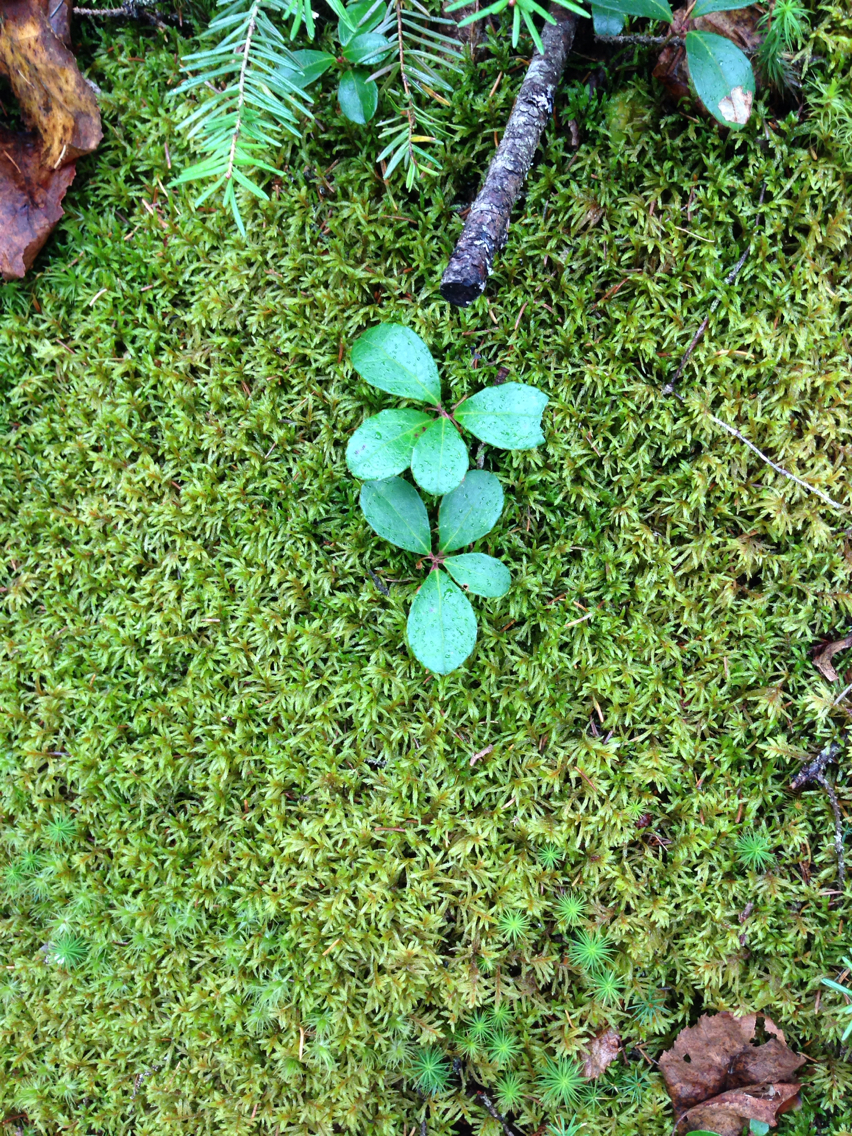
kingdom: Plantae
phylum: Tracheophyta
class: Magnoliopsida
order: Ericales
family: Ericaceae
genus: Gaultheria
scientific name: Gaultheria procumbens
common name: Checkerberry
